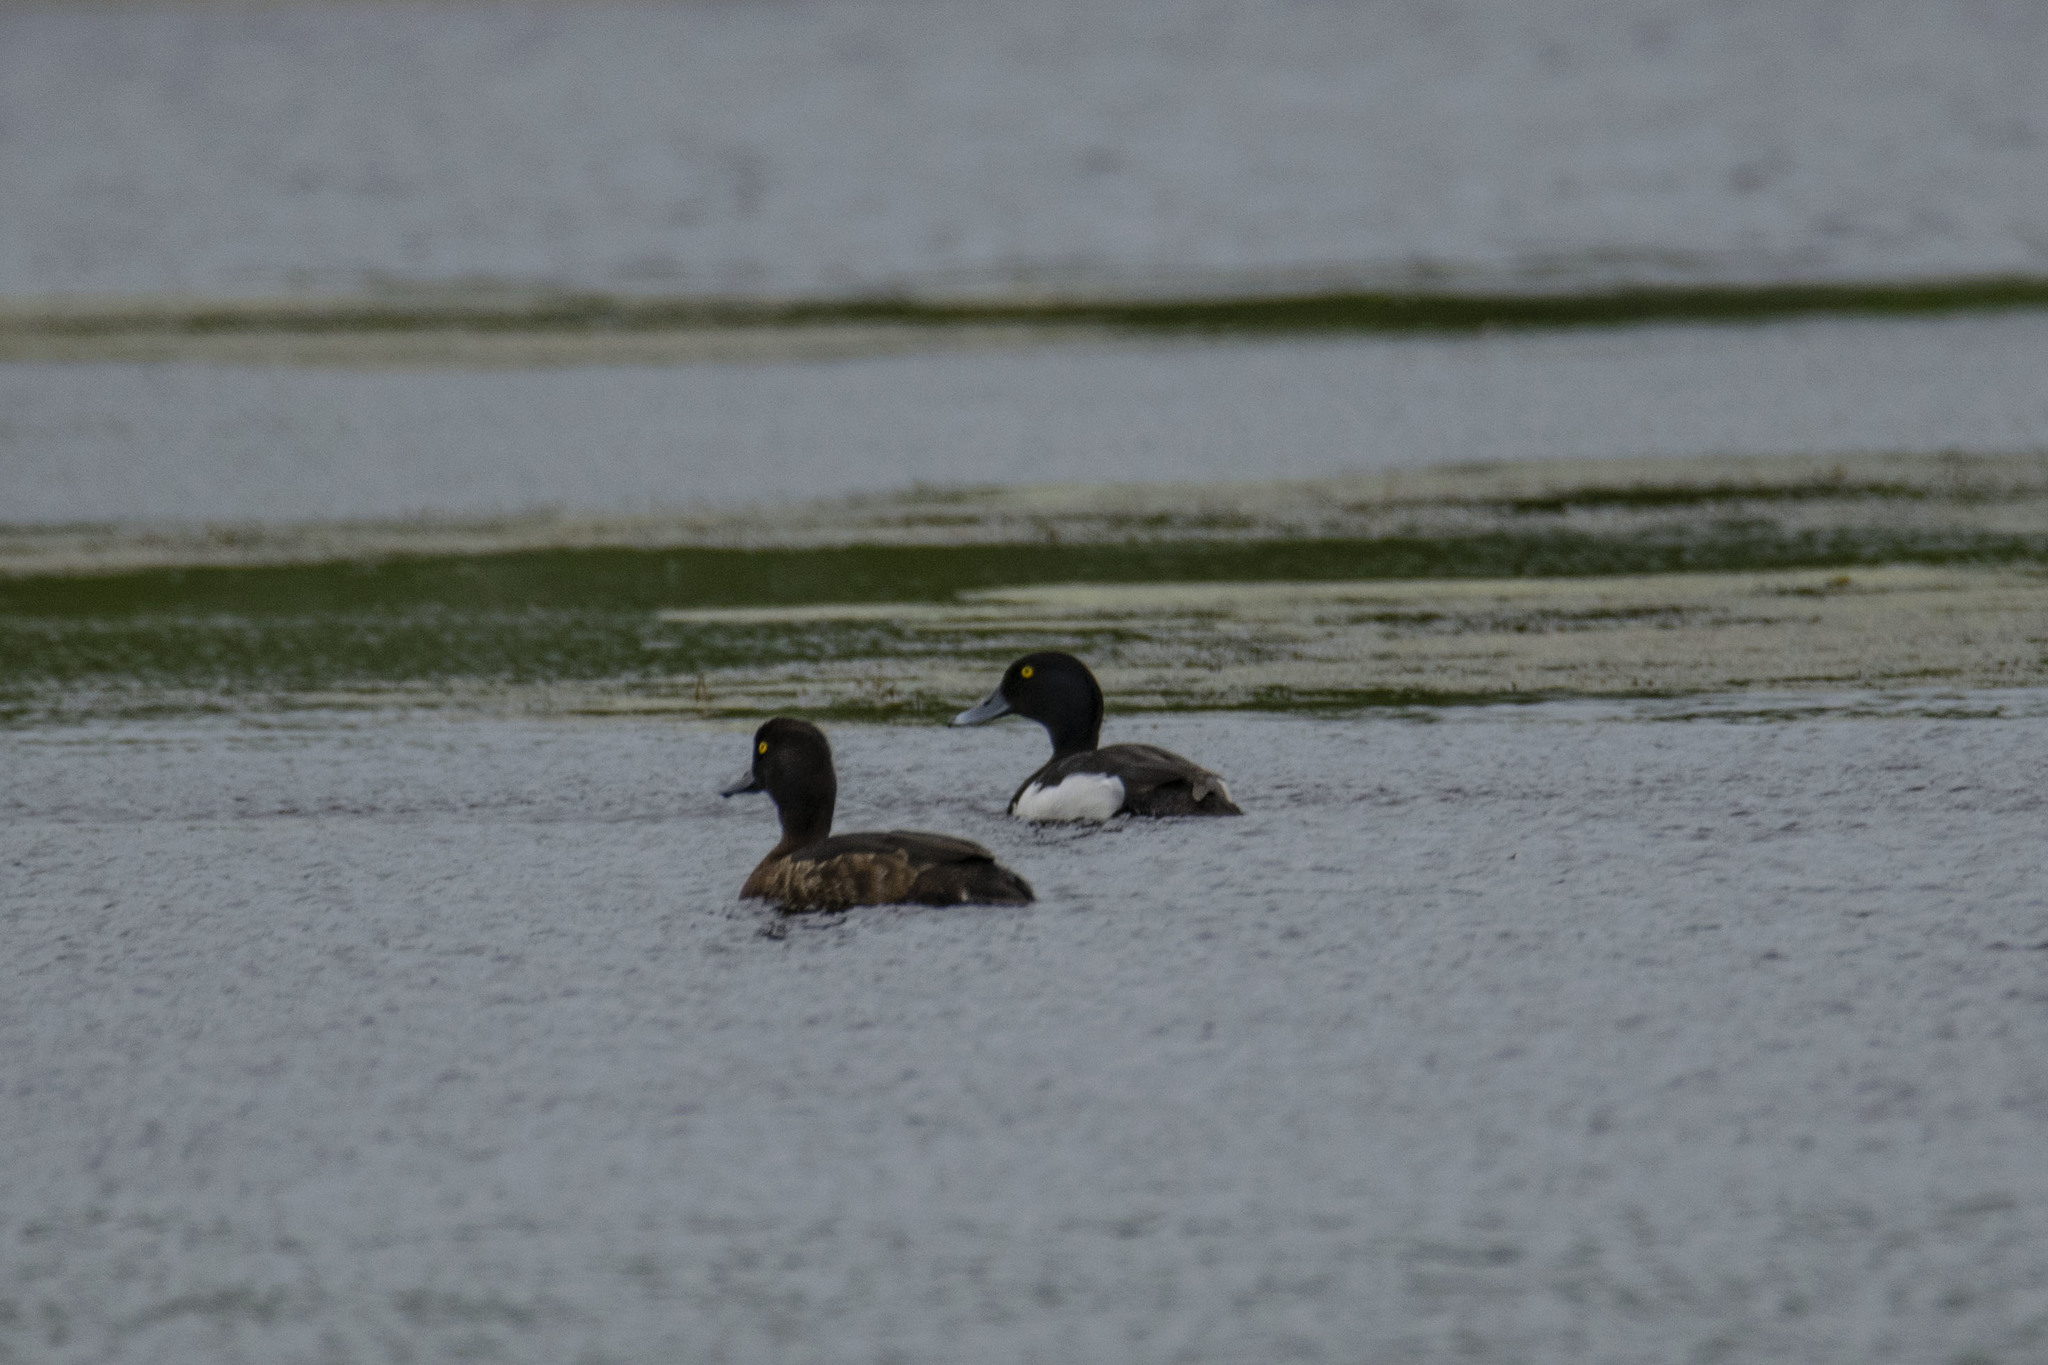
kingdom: Animalia
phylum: Chordata
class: Aves
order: Anseriformes
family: Anatidae
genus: Aythya
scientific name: Aythya fuligula
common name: Tufted duck
